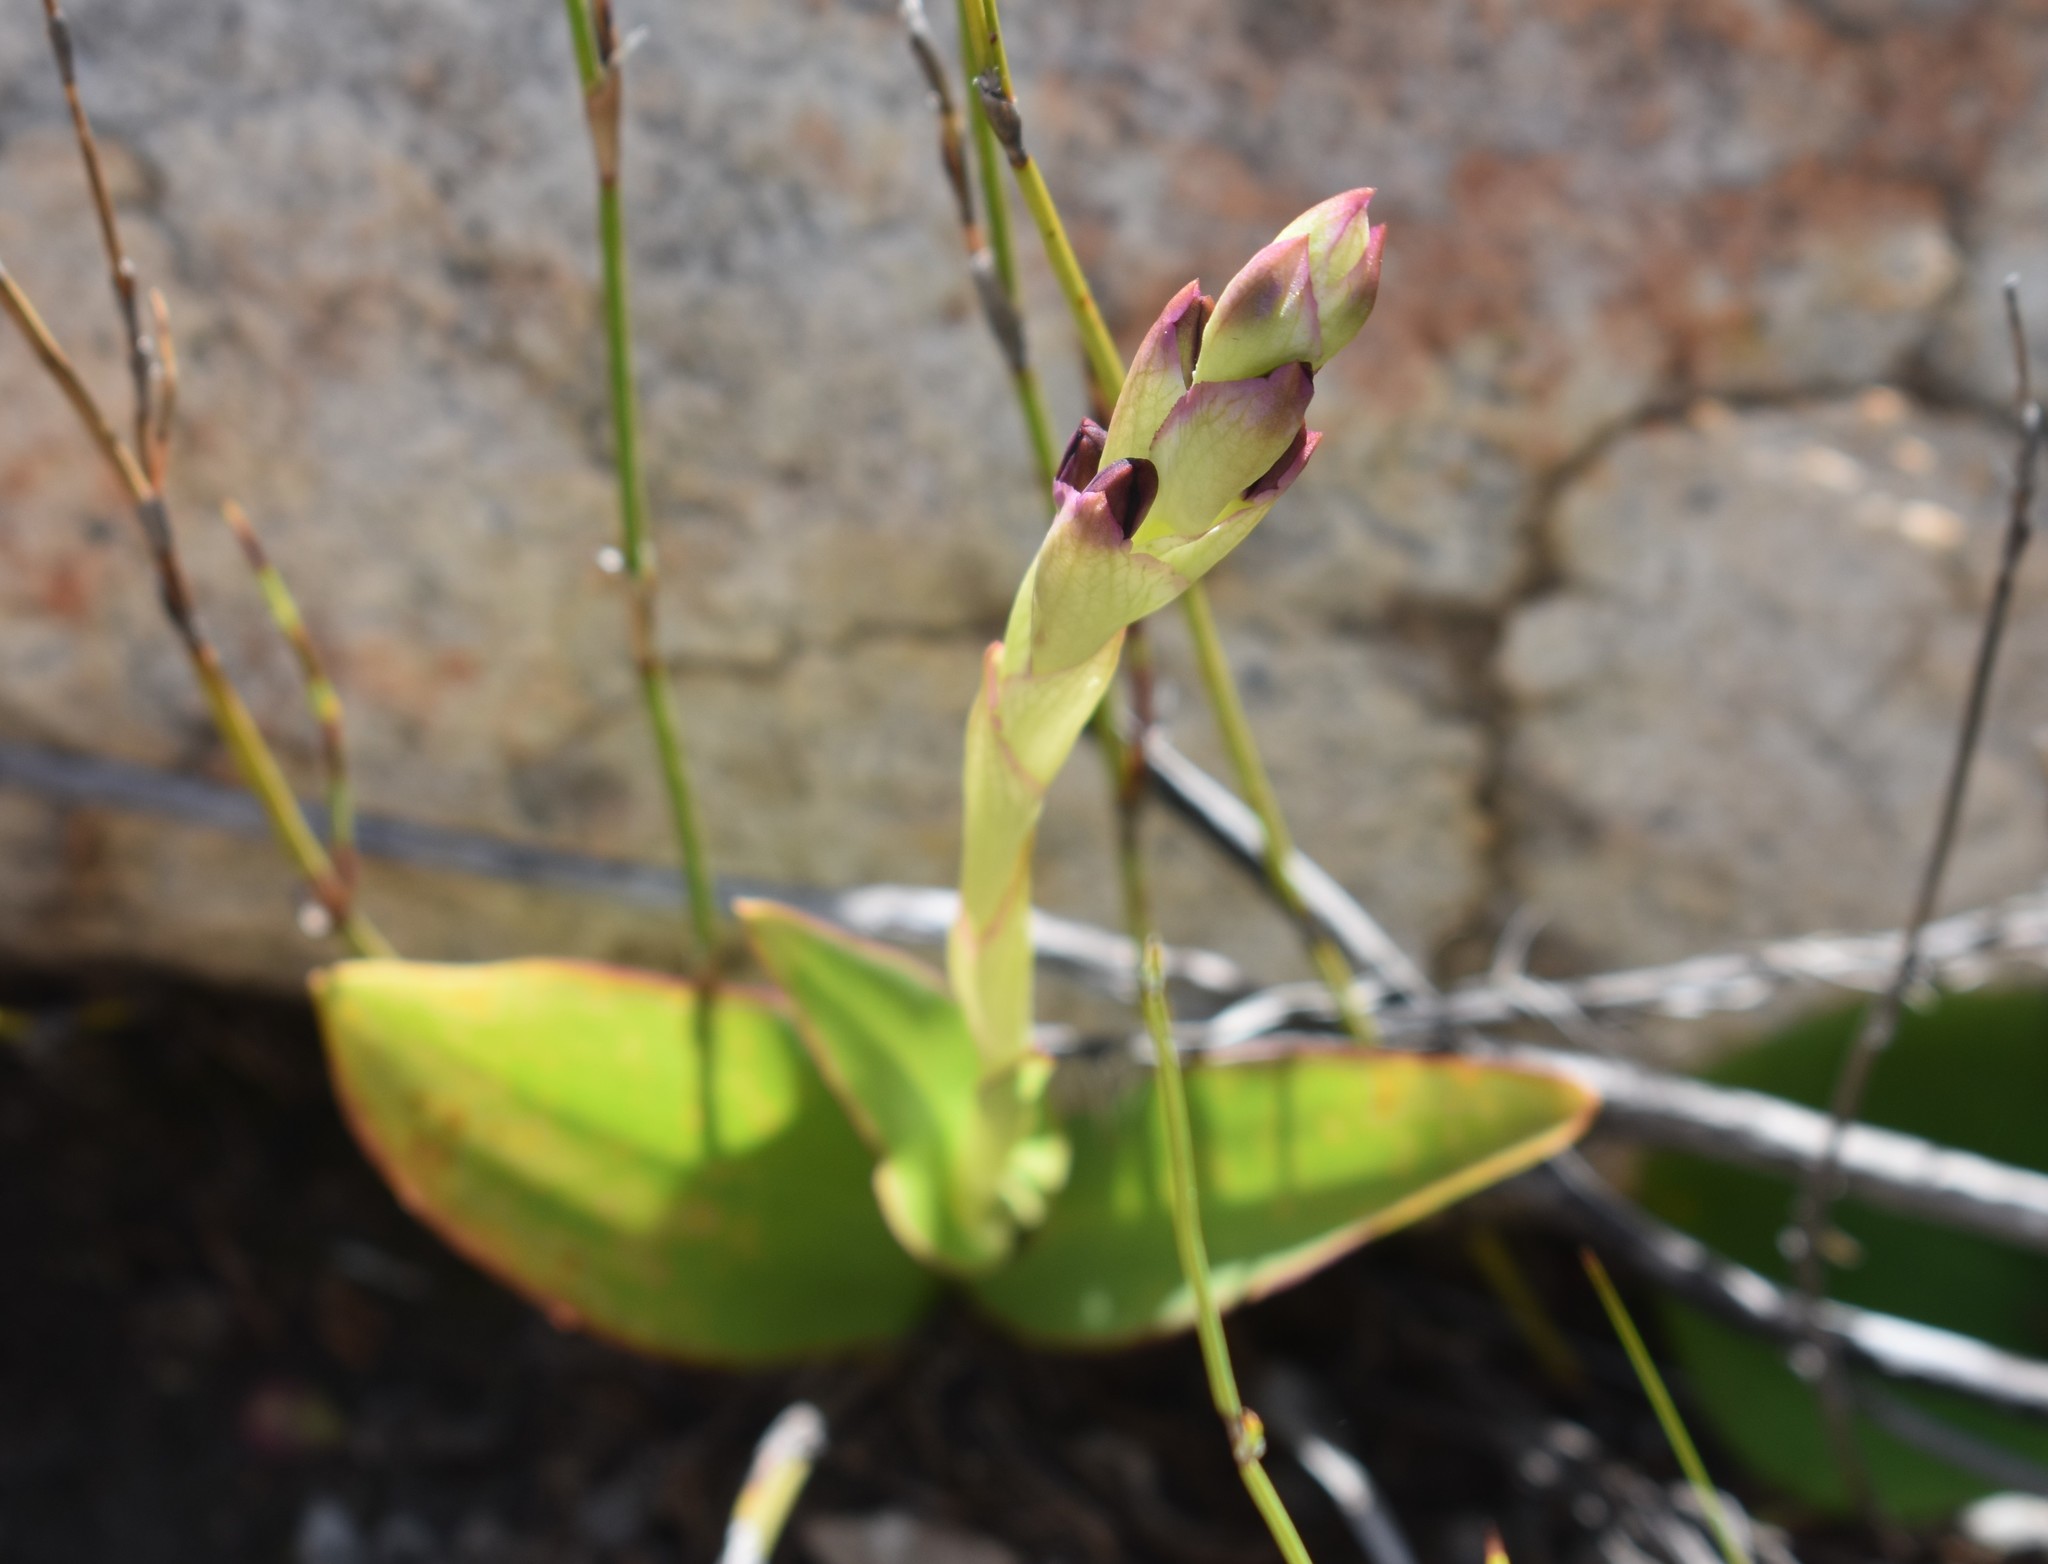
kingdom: Plantae
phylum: Tracheophyta
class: Liliopsida
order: Asparagales
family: Orchidaceae
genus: Disa
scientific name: Disa comosa
